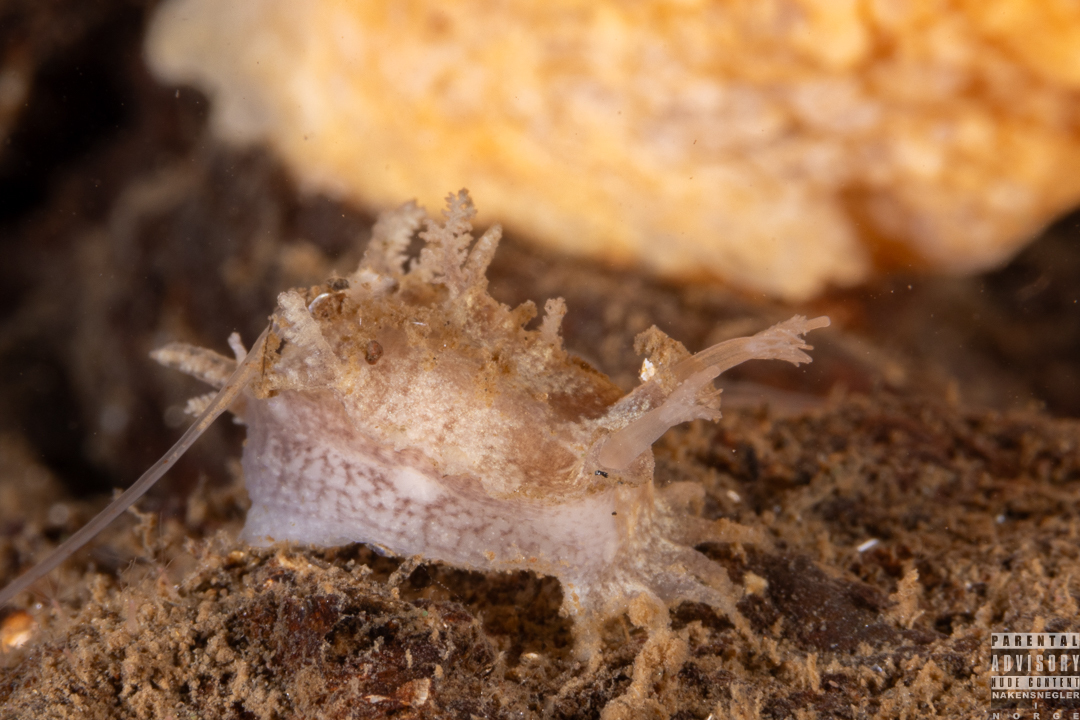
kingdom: Animalia
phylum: Mollusca
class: Gastropoda
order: Nudibranchia
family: Tritoniidae
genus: Duvaucelia
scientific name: Duvaucelia plebeia
